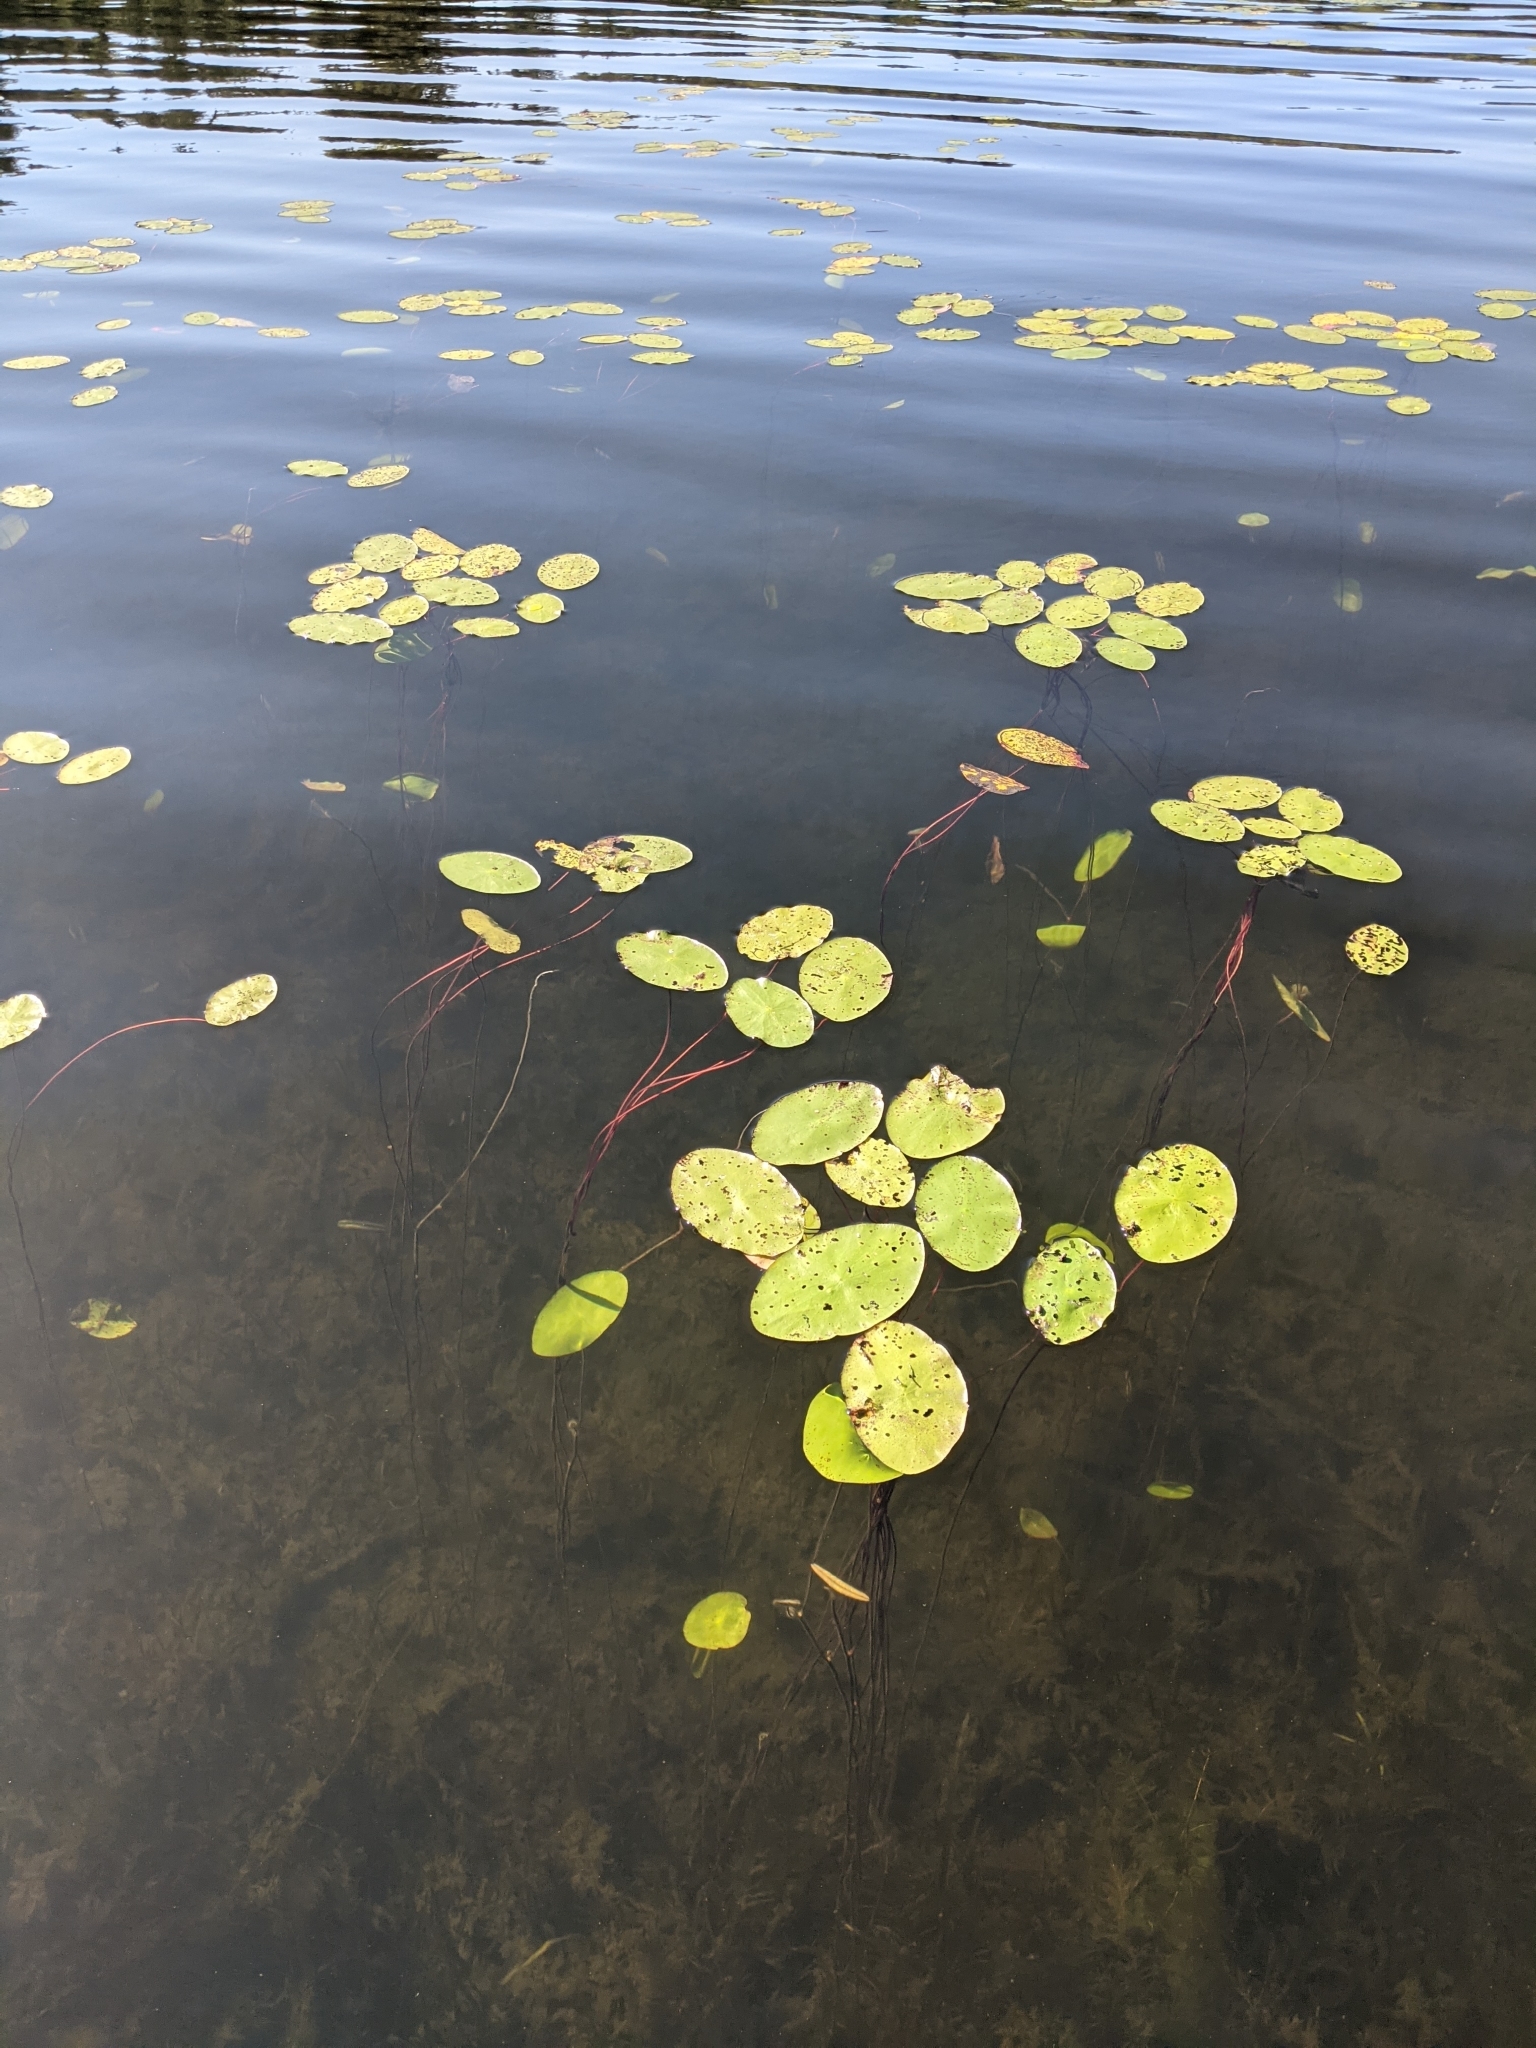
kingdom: Plantae
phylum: Tracheophyta
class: Magnoliopsida
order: Nymphaeales
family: Cabombaceae
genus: Brasenia
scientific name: Brasenia schreberi
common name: Water-shield
